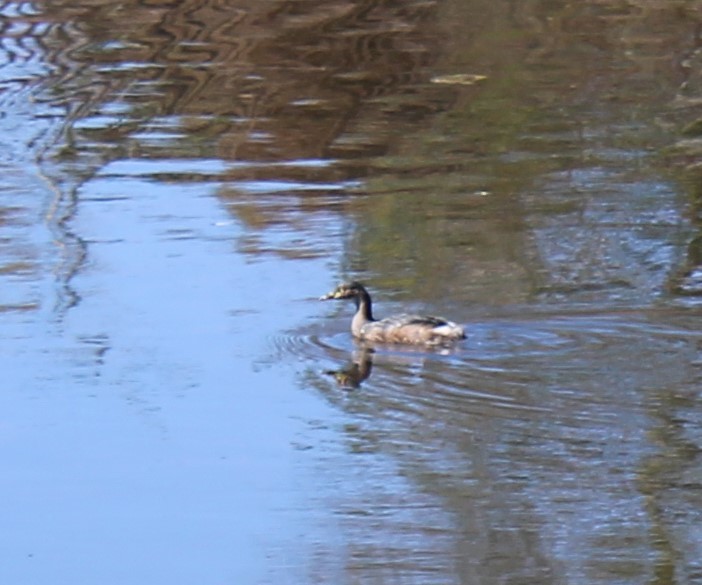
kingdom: Animalia
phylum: Chordata
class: Aves
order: Podicipediformes
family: Podicipedidae
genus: Tachybaptus
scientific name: Tachybaptus novaehollandiae
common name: Australasian grebe
